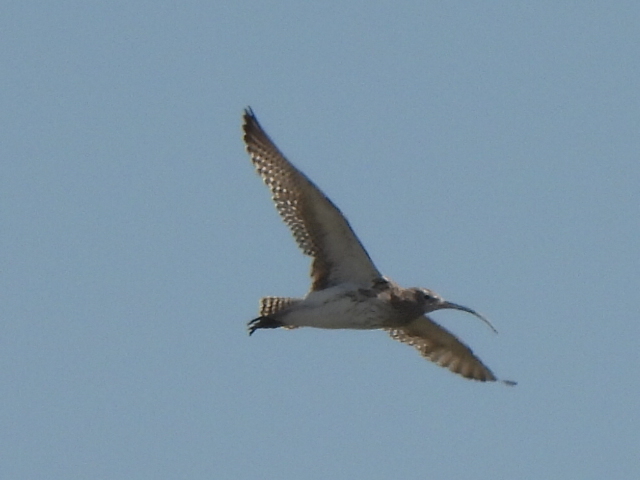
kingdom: Animalia
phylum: Chordata
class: Aves
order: Charadriiformes
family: Scolopacidae
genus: Numenius
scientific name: Numenius arquata
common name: Eurasian curlew
